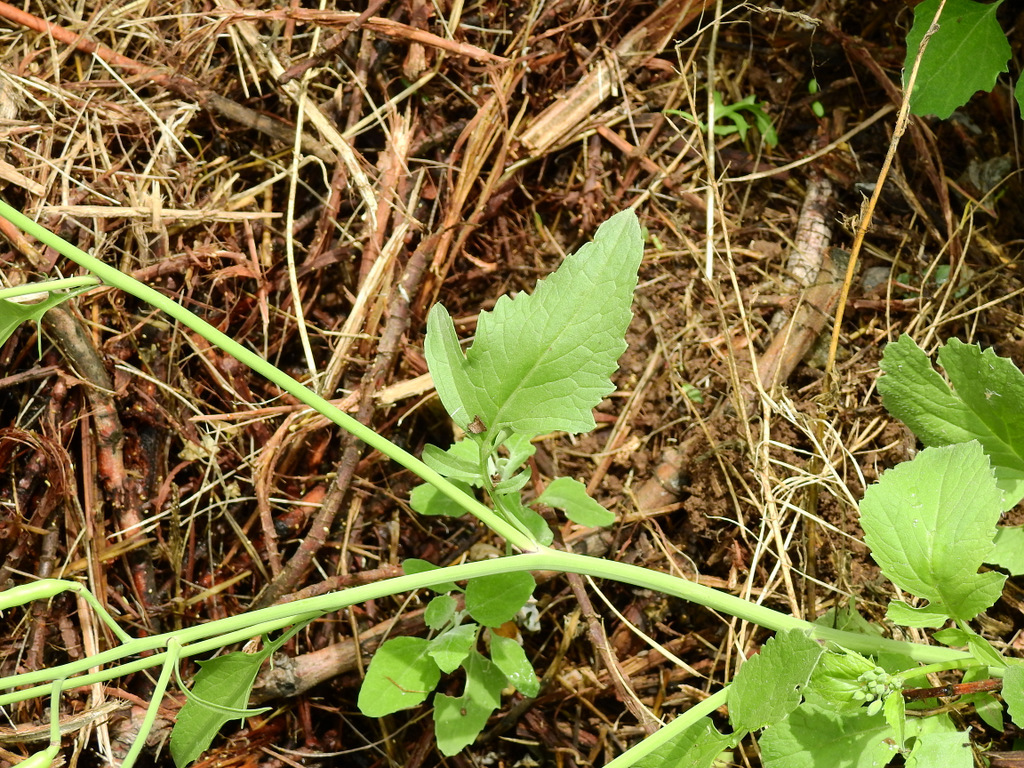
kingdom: Plantae
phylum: Tracheophyta
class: Magnoliopsida
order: Brassicales
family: Brassicaceae
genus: Raphanus
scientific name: Raphanus sativus
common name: Cultivated radish
